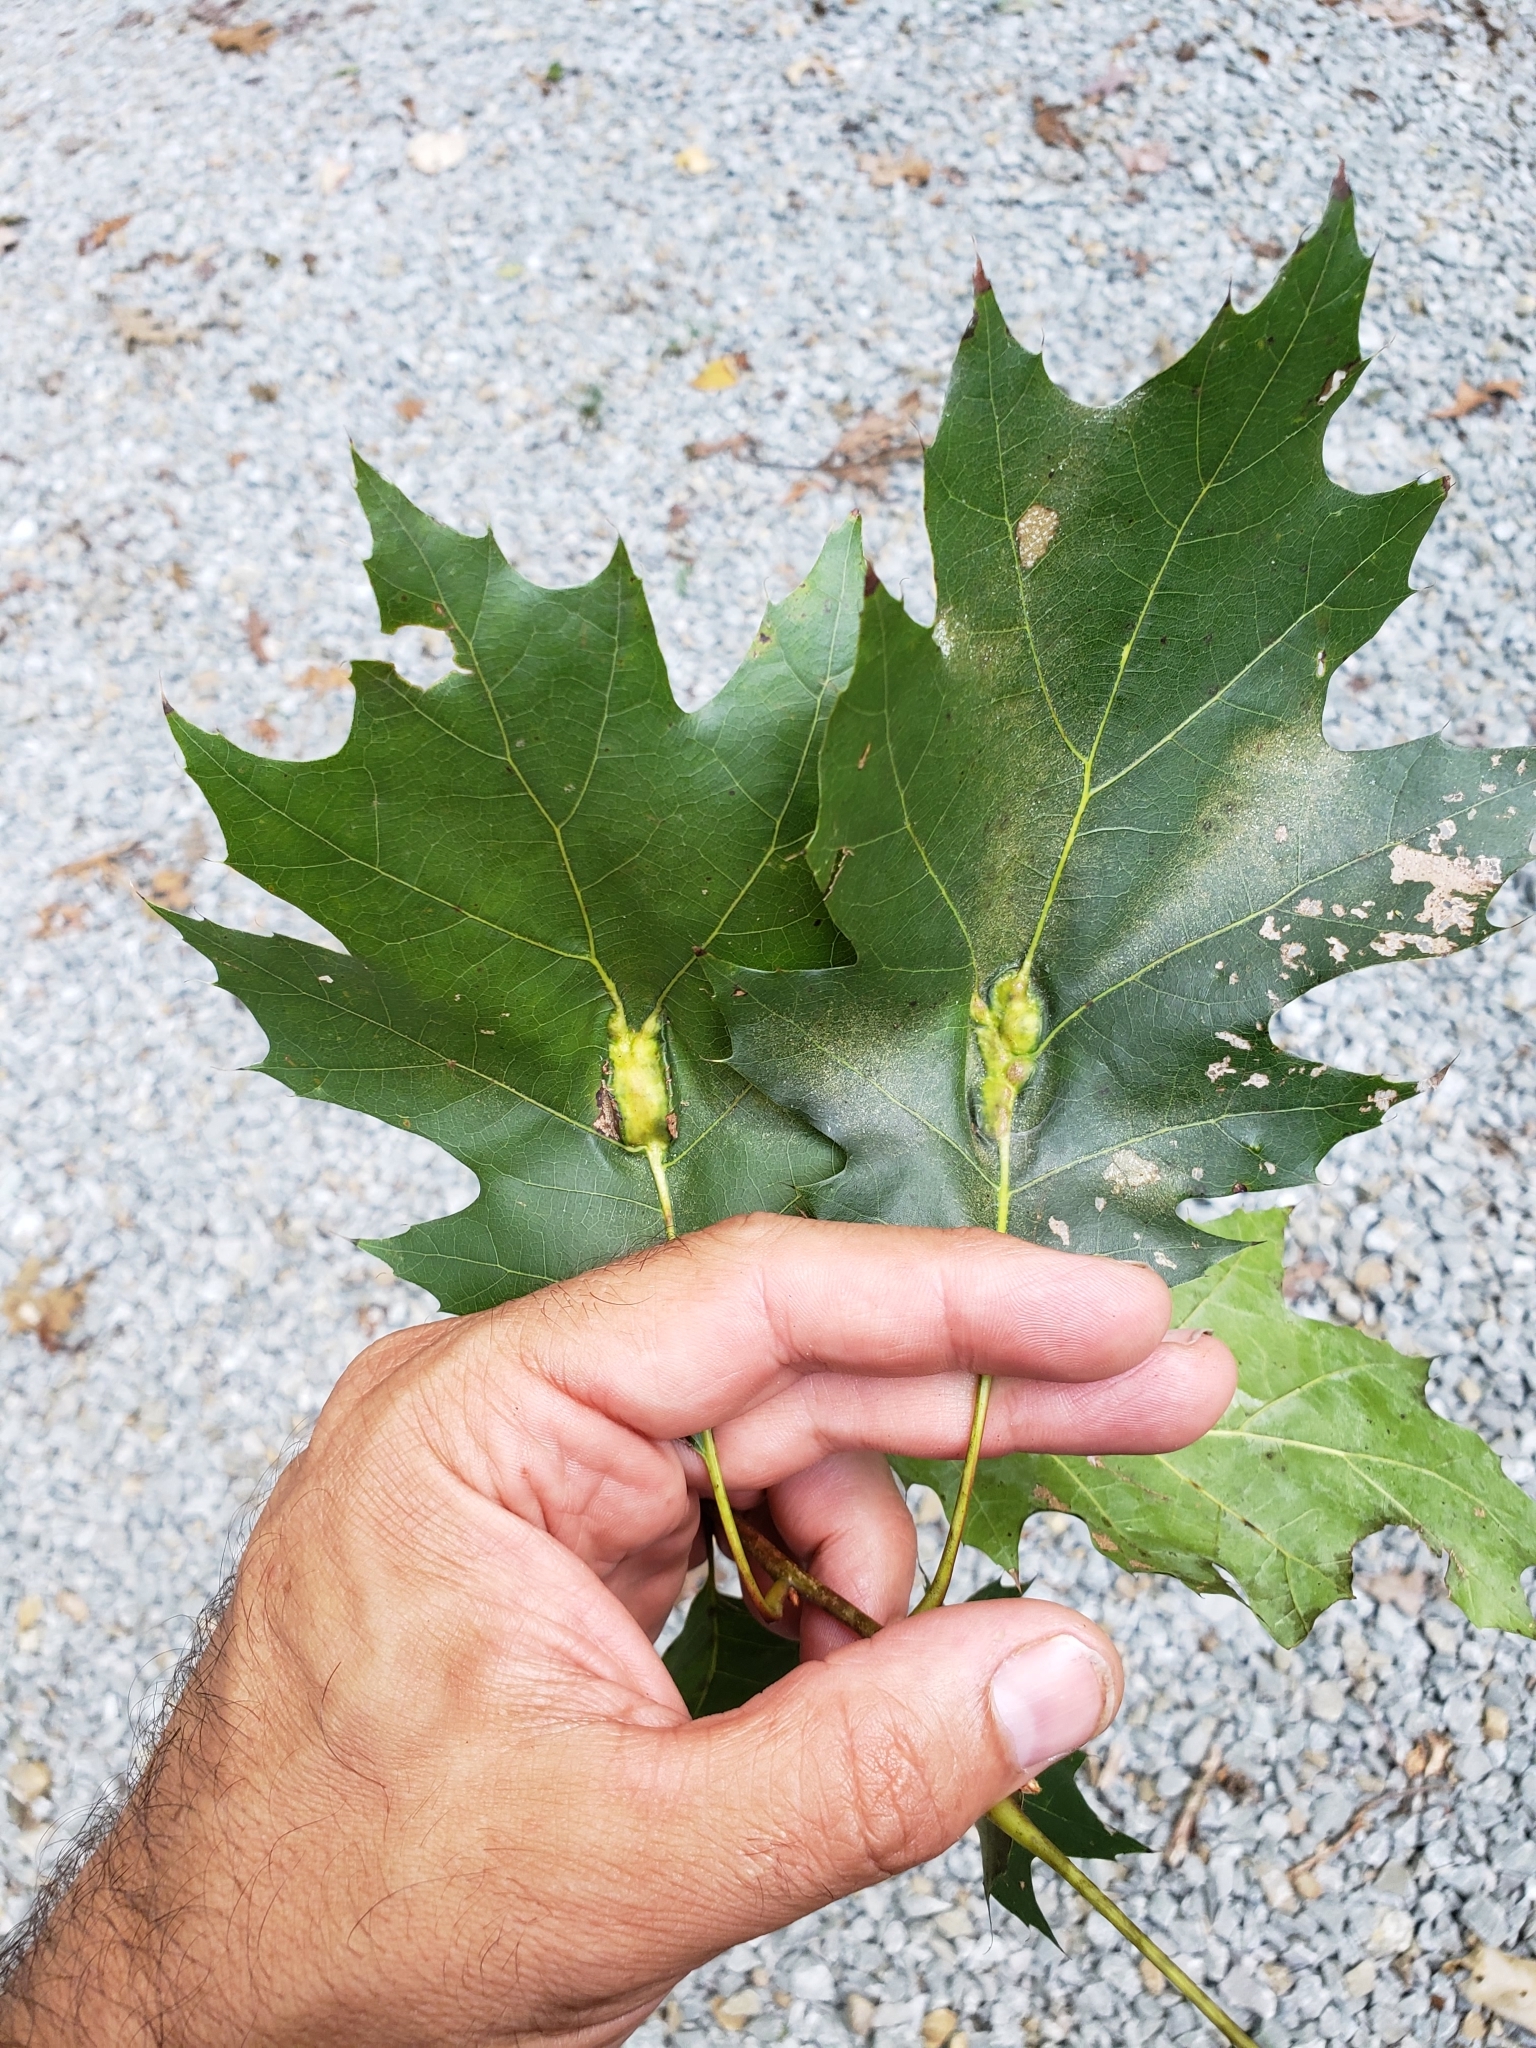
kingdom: Animalia
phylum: Arthropoda
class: Insecta
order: Hymenoptera
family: Cynipidae
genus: Melikaiella
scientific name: Melikaiella tumifica
